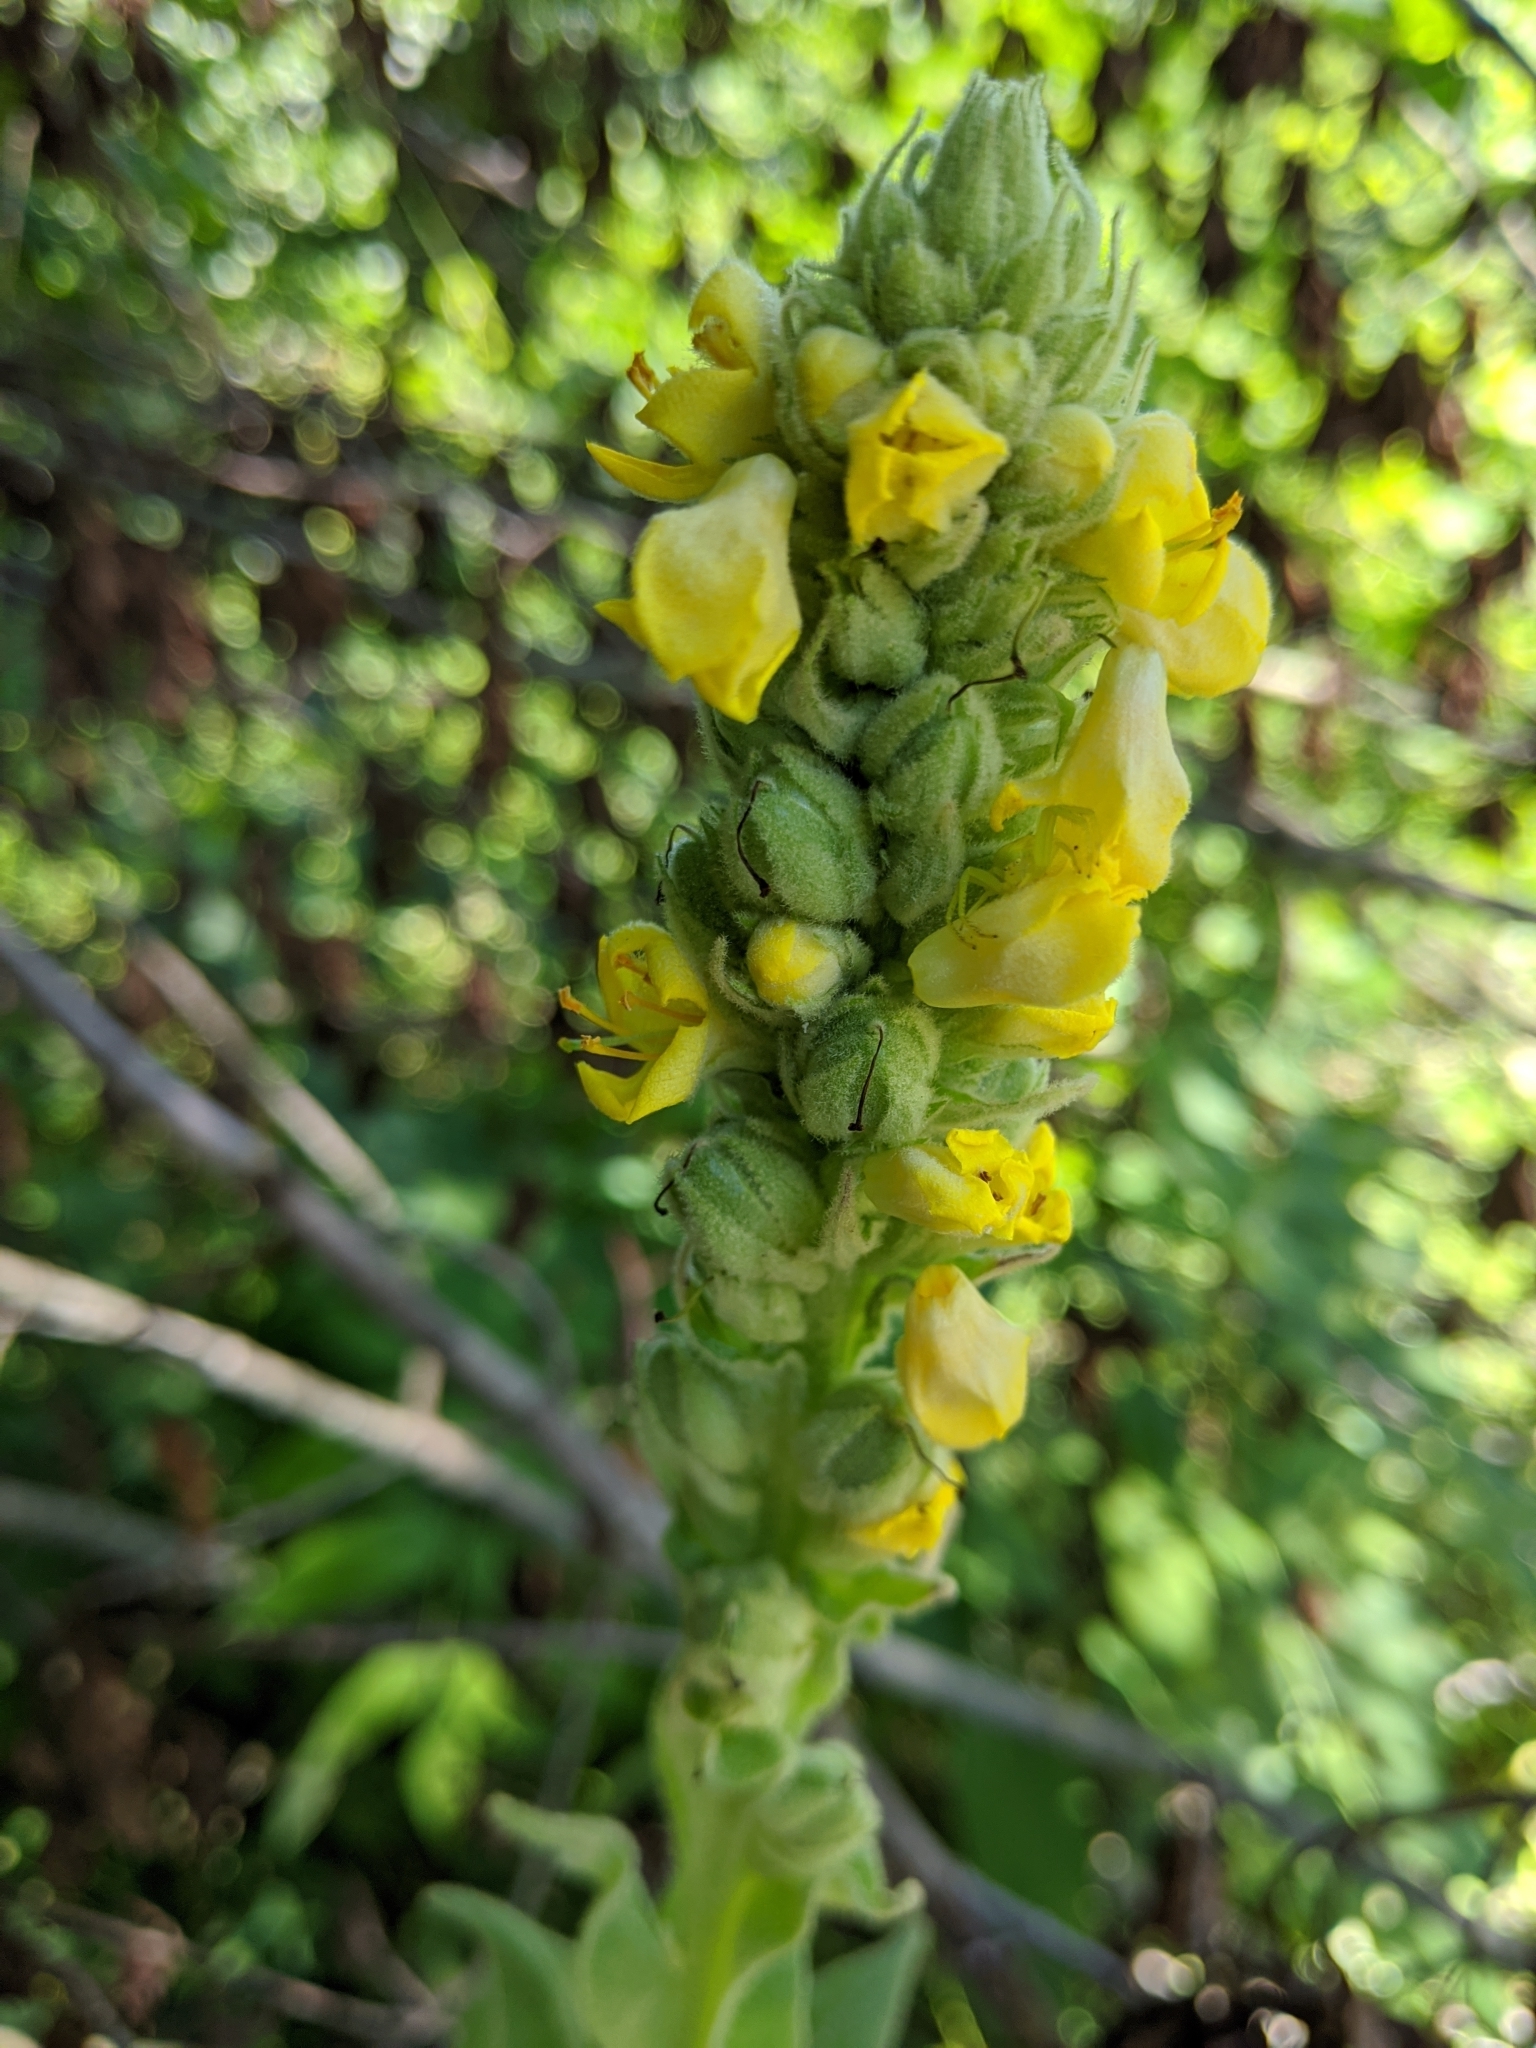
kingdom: Plantae
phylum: Tracheophyta
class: Magnoliopsida
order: Lamiales
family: Scrophulariaceae
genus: Verbascum
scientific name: Verbascum thapsus
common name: Common mullein
